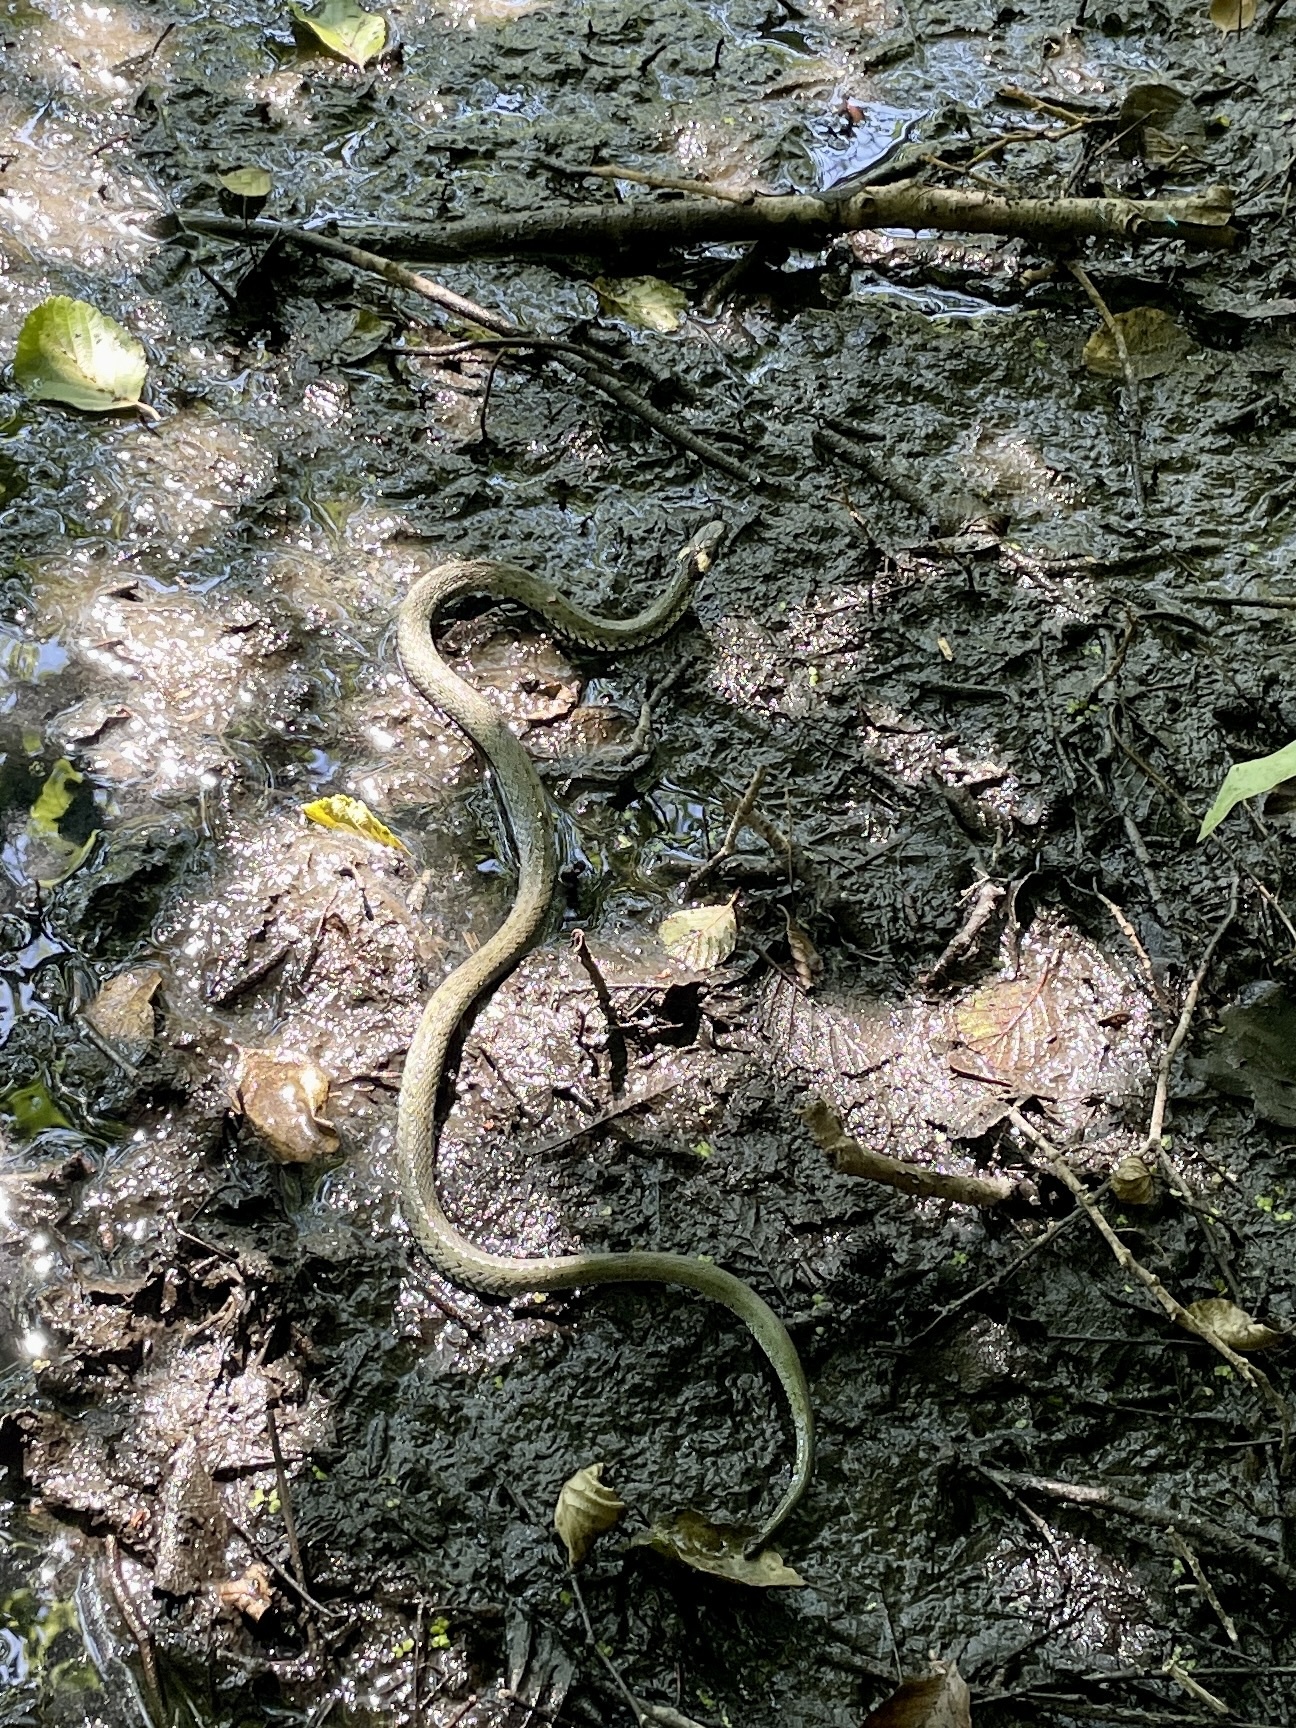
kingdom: Animalia
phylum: Chordata
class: Squamata
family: Colubridae
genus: Natrix
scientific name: Natrix natrix
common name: Grass snake
